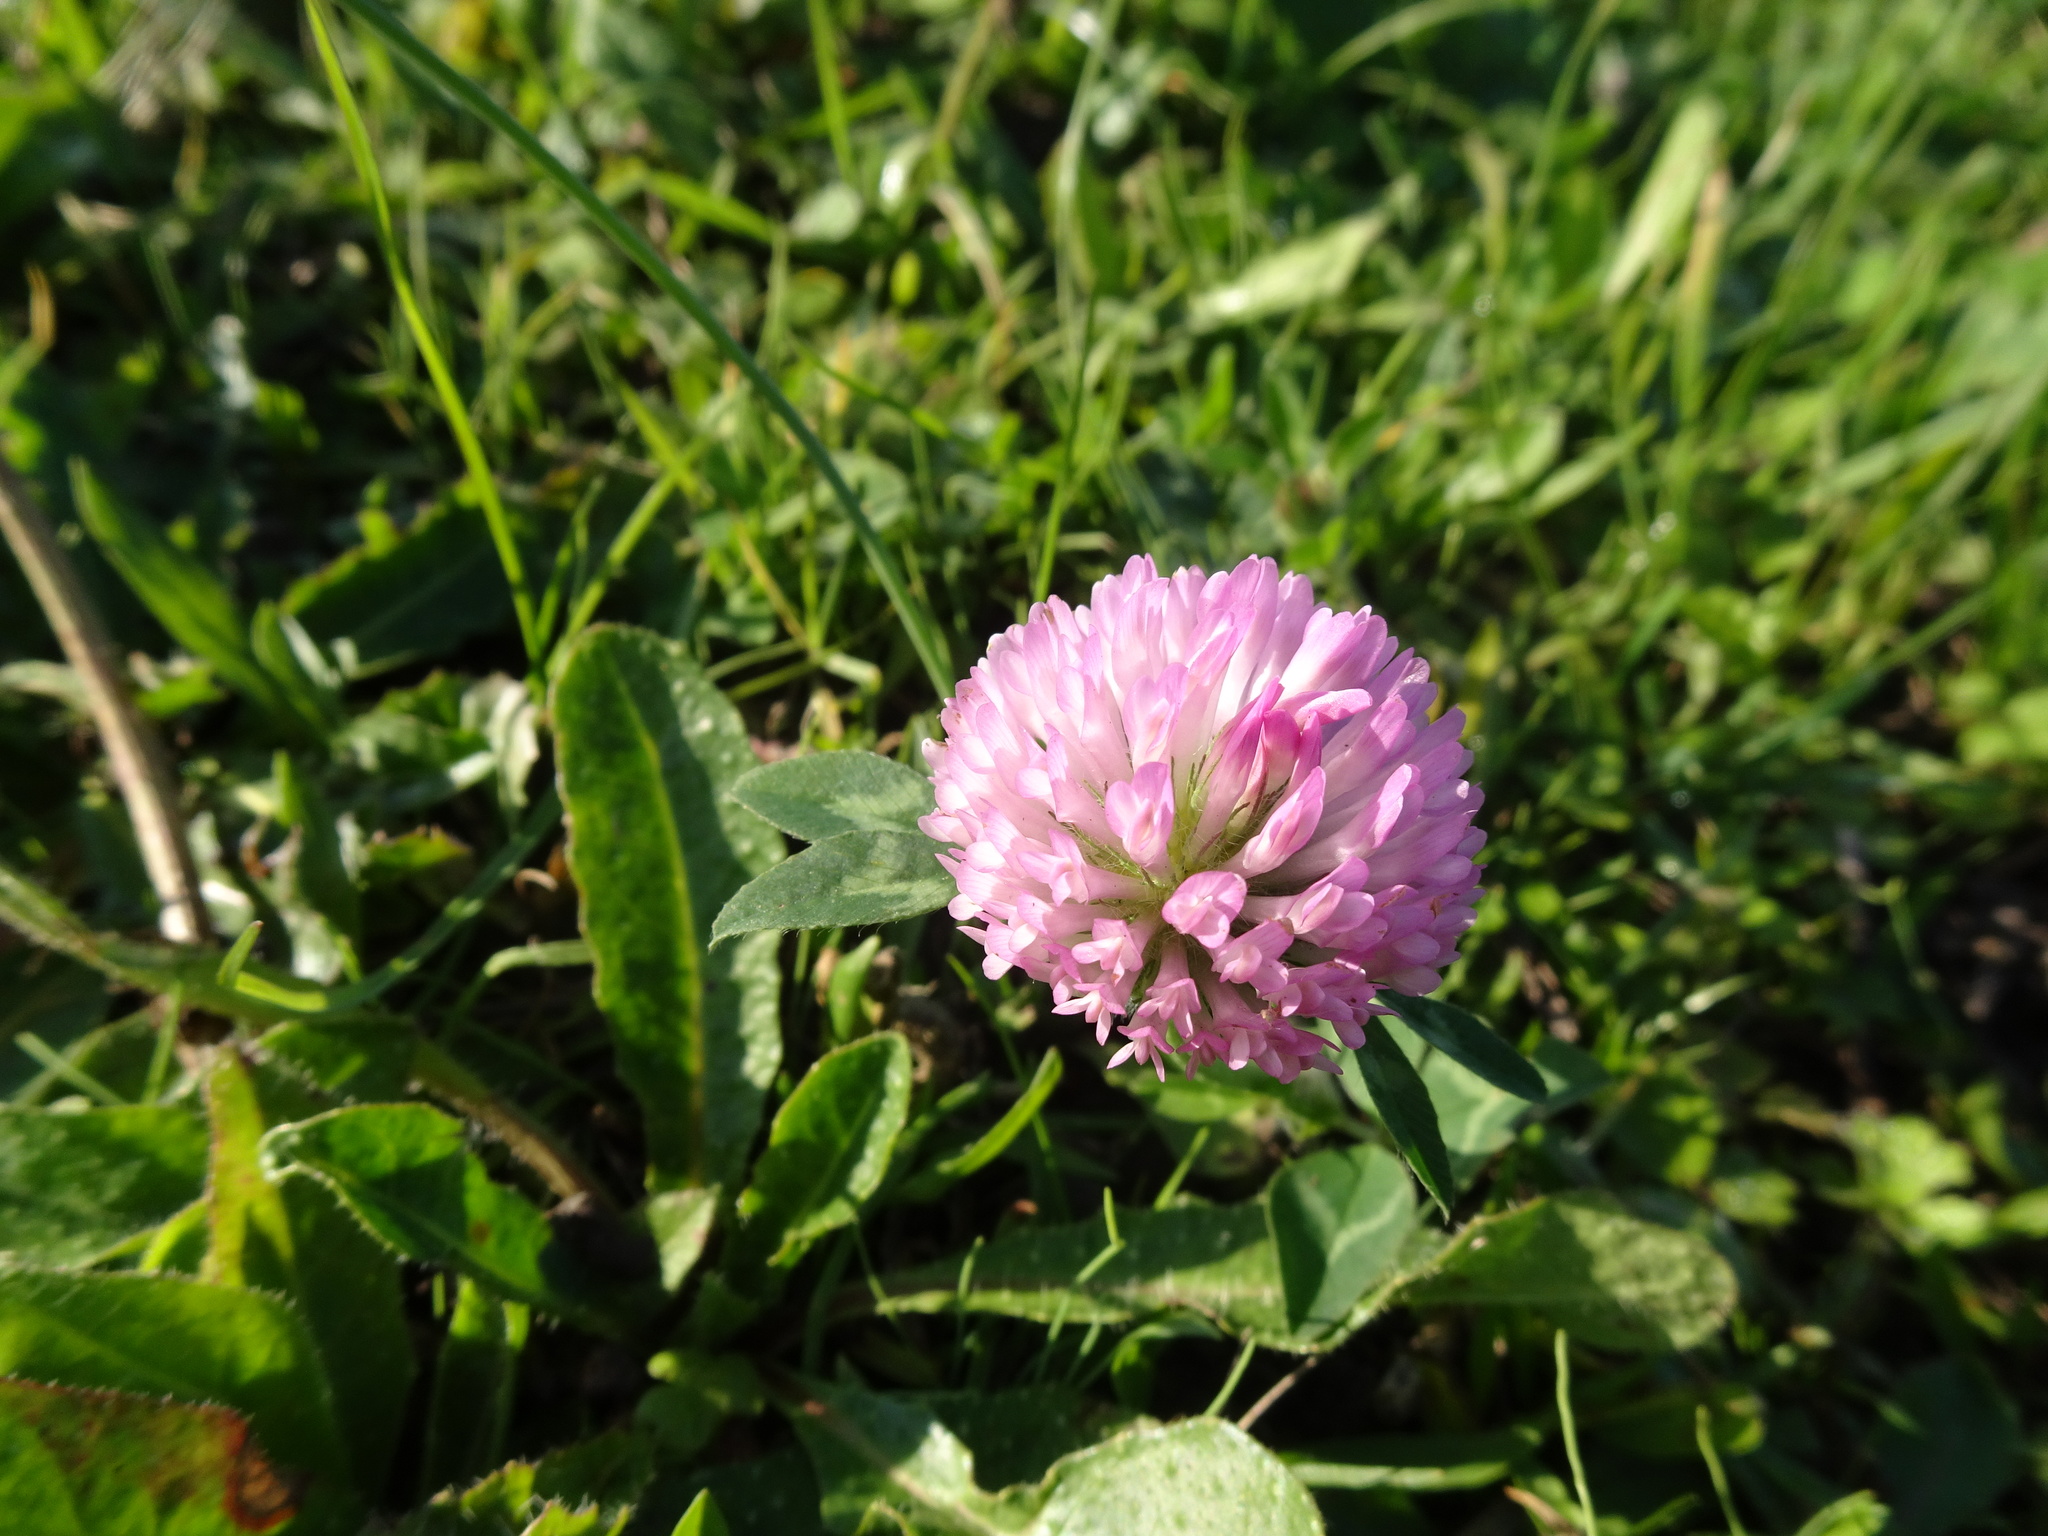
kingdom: Plantae
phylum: Tracheophyta
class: Magnoliopsida
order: Fabales
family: Fabaceae
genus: Trifolium
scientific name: Trifolium pratense
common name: Red clover
